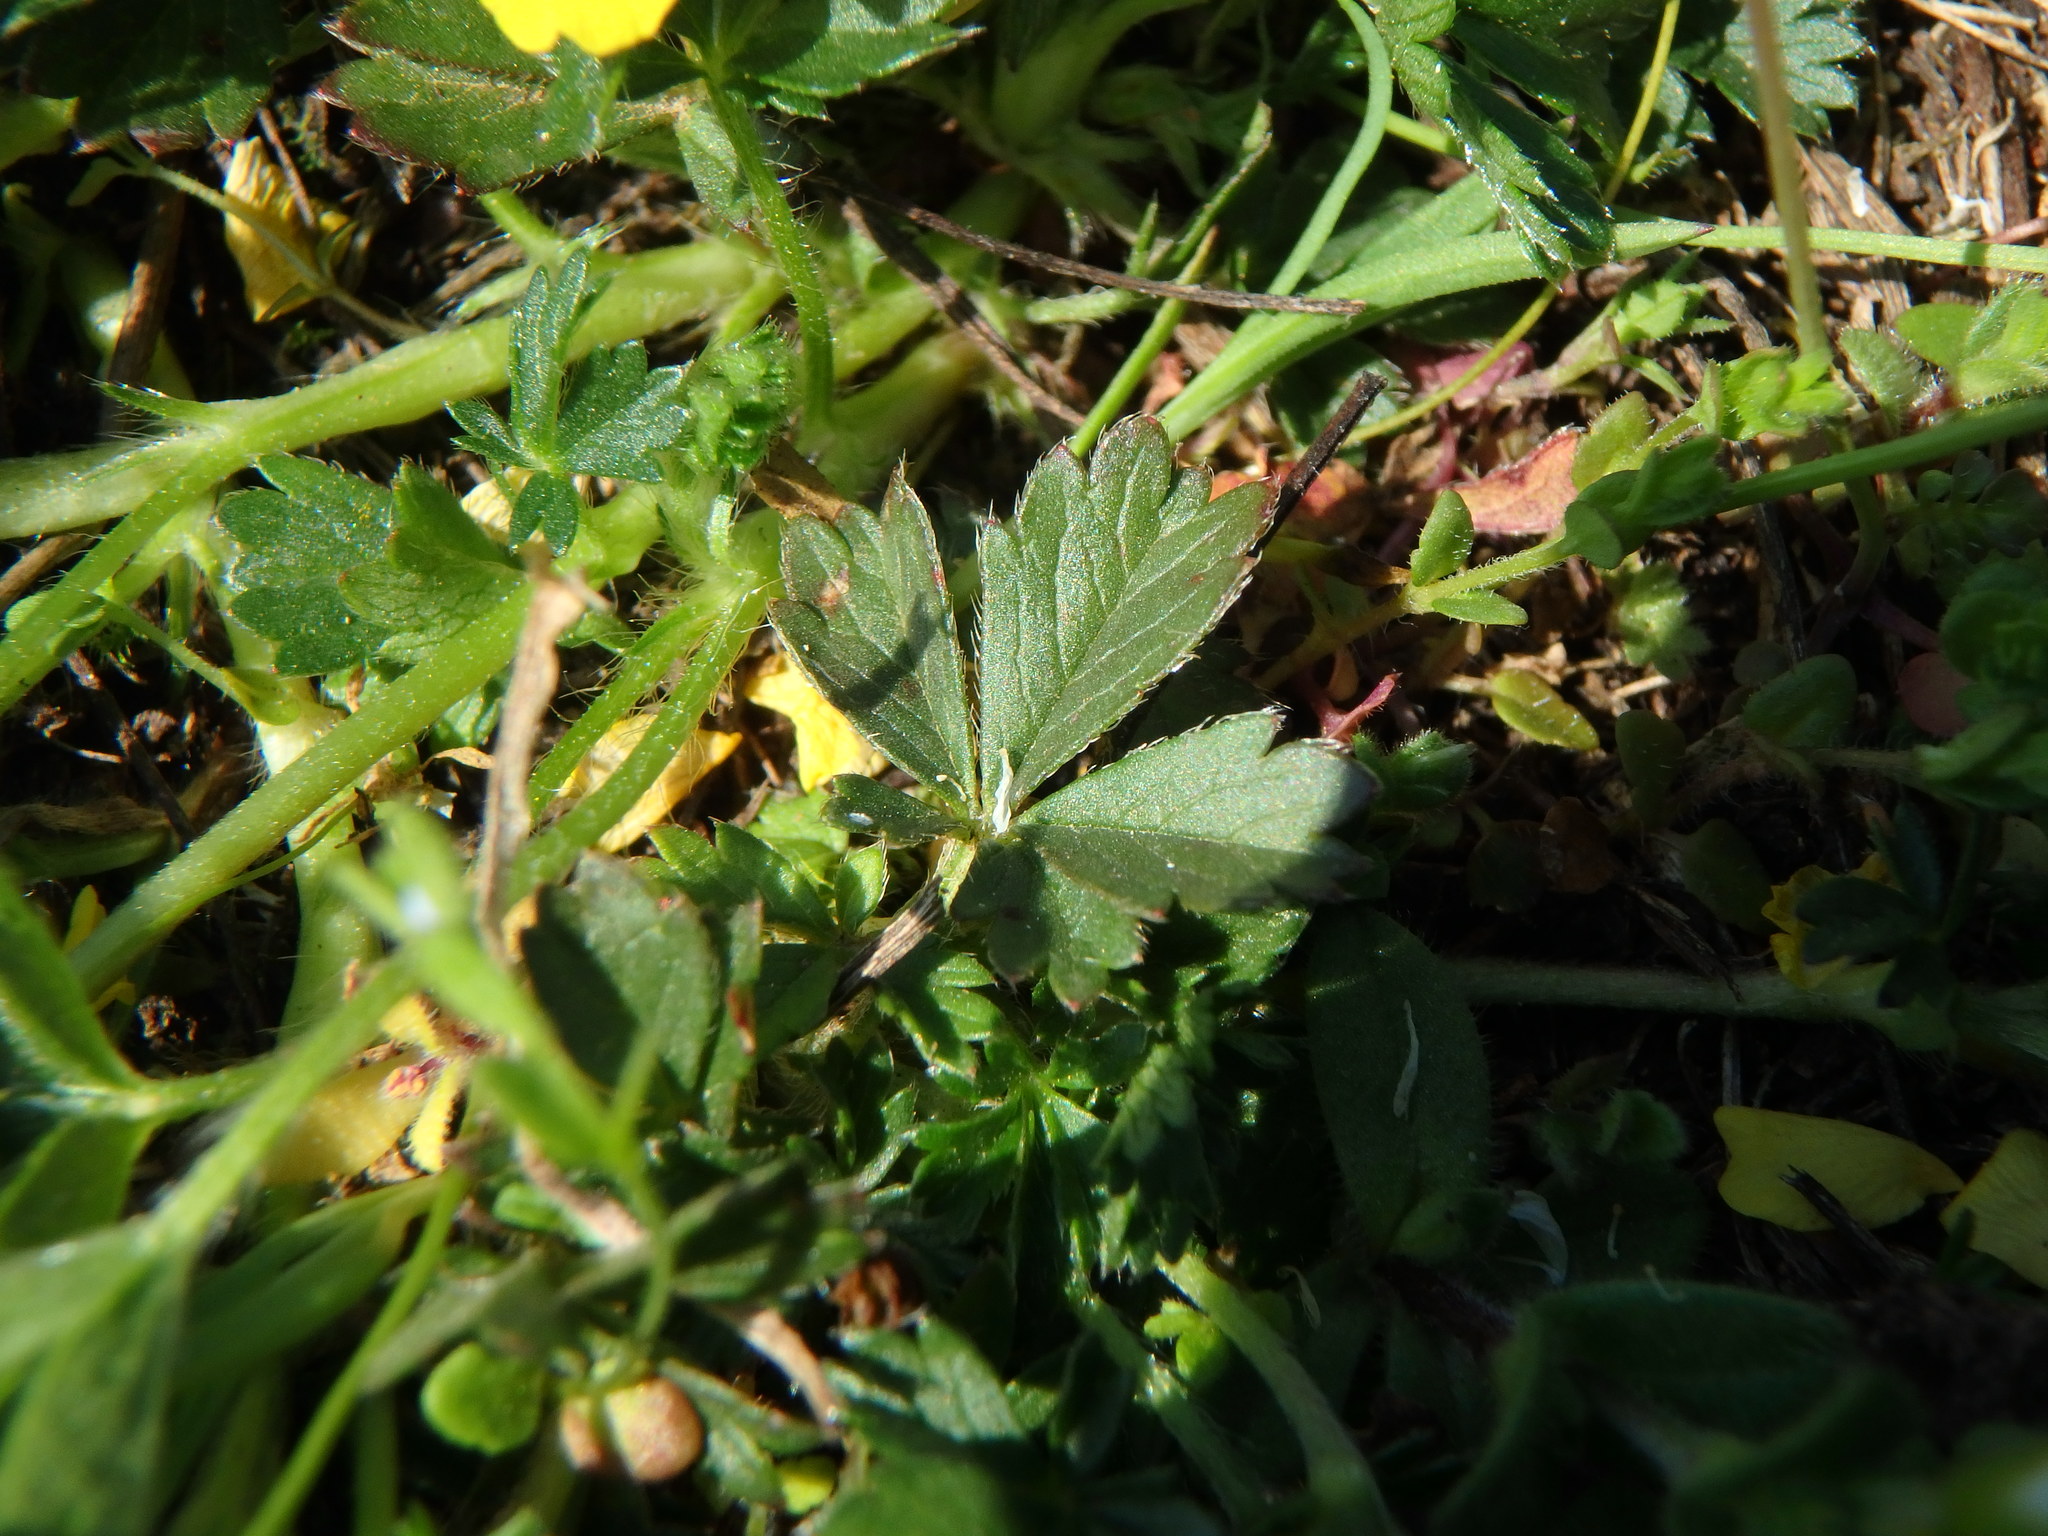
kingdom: Plantae
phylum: Tracheophyta
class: Magnoliopsida
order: Rosales
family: Rosaceae
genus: Potentilla
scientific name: Potentilla verna
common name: Spring cinquefoil
